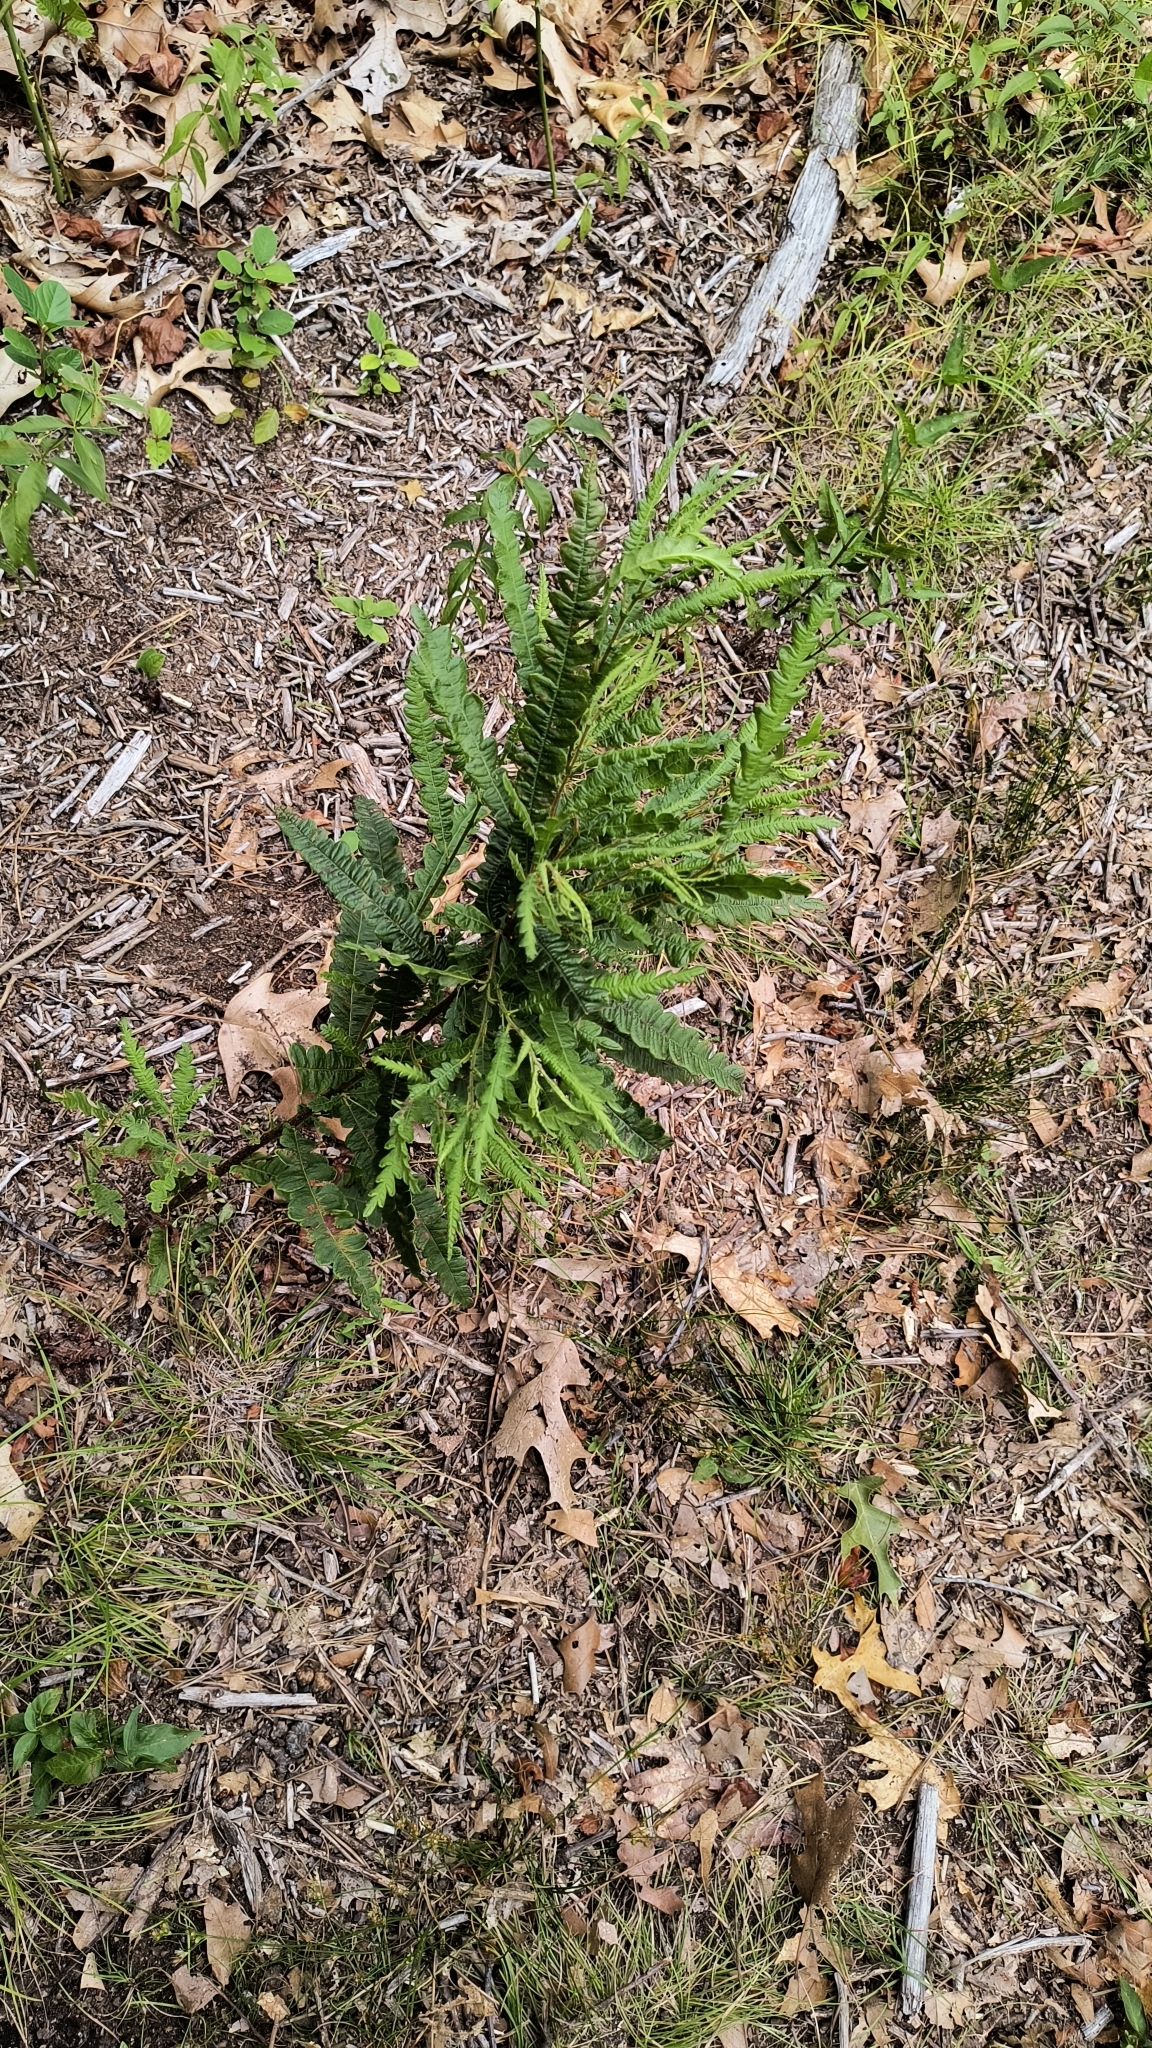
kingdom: Plantae
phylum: Tracheophyta
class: Magnoliopsida
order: Fagales
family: Myricaceae
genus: Comptonia
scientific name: Comptonia peregrina
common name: Sweet-fern
